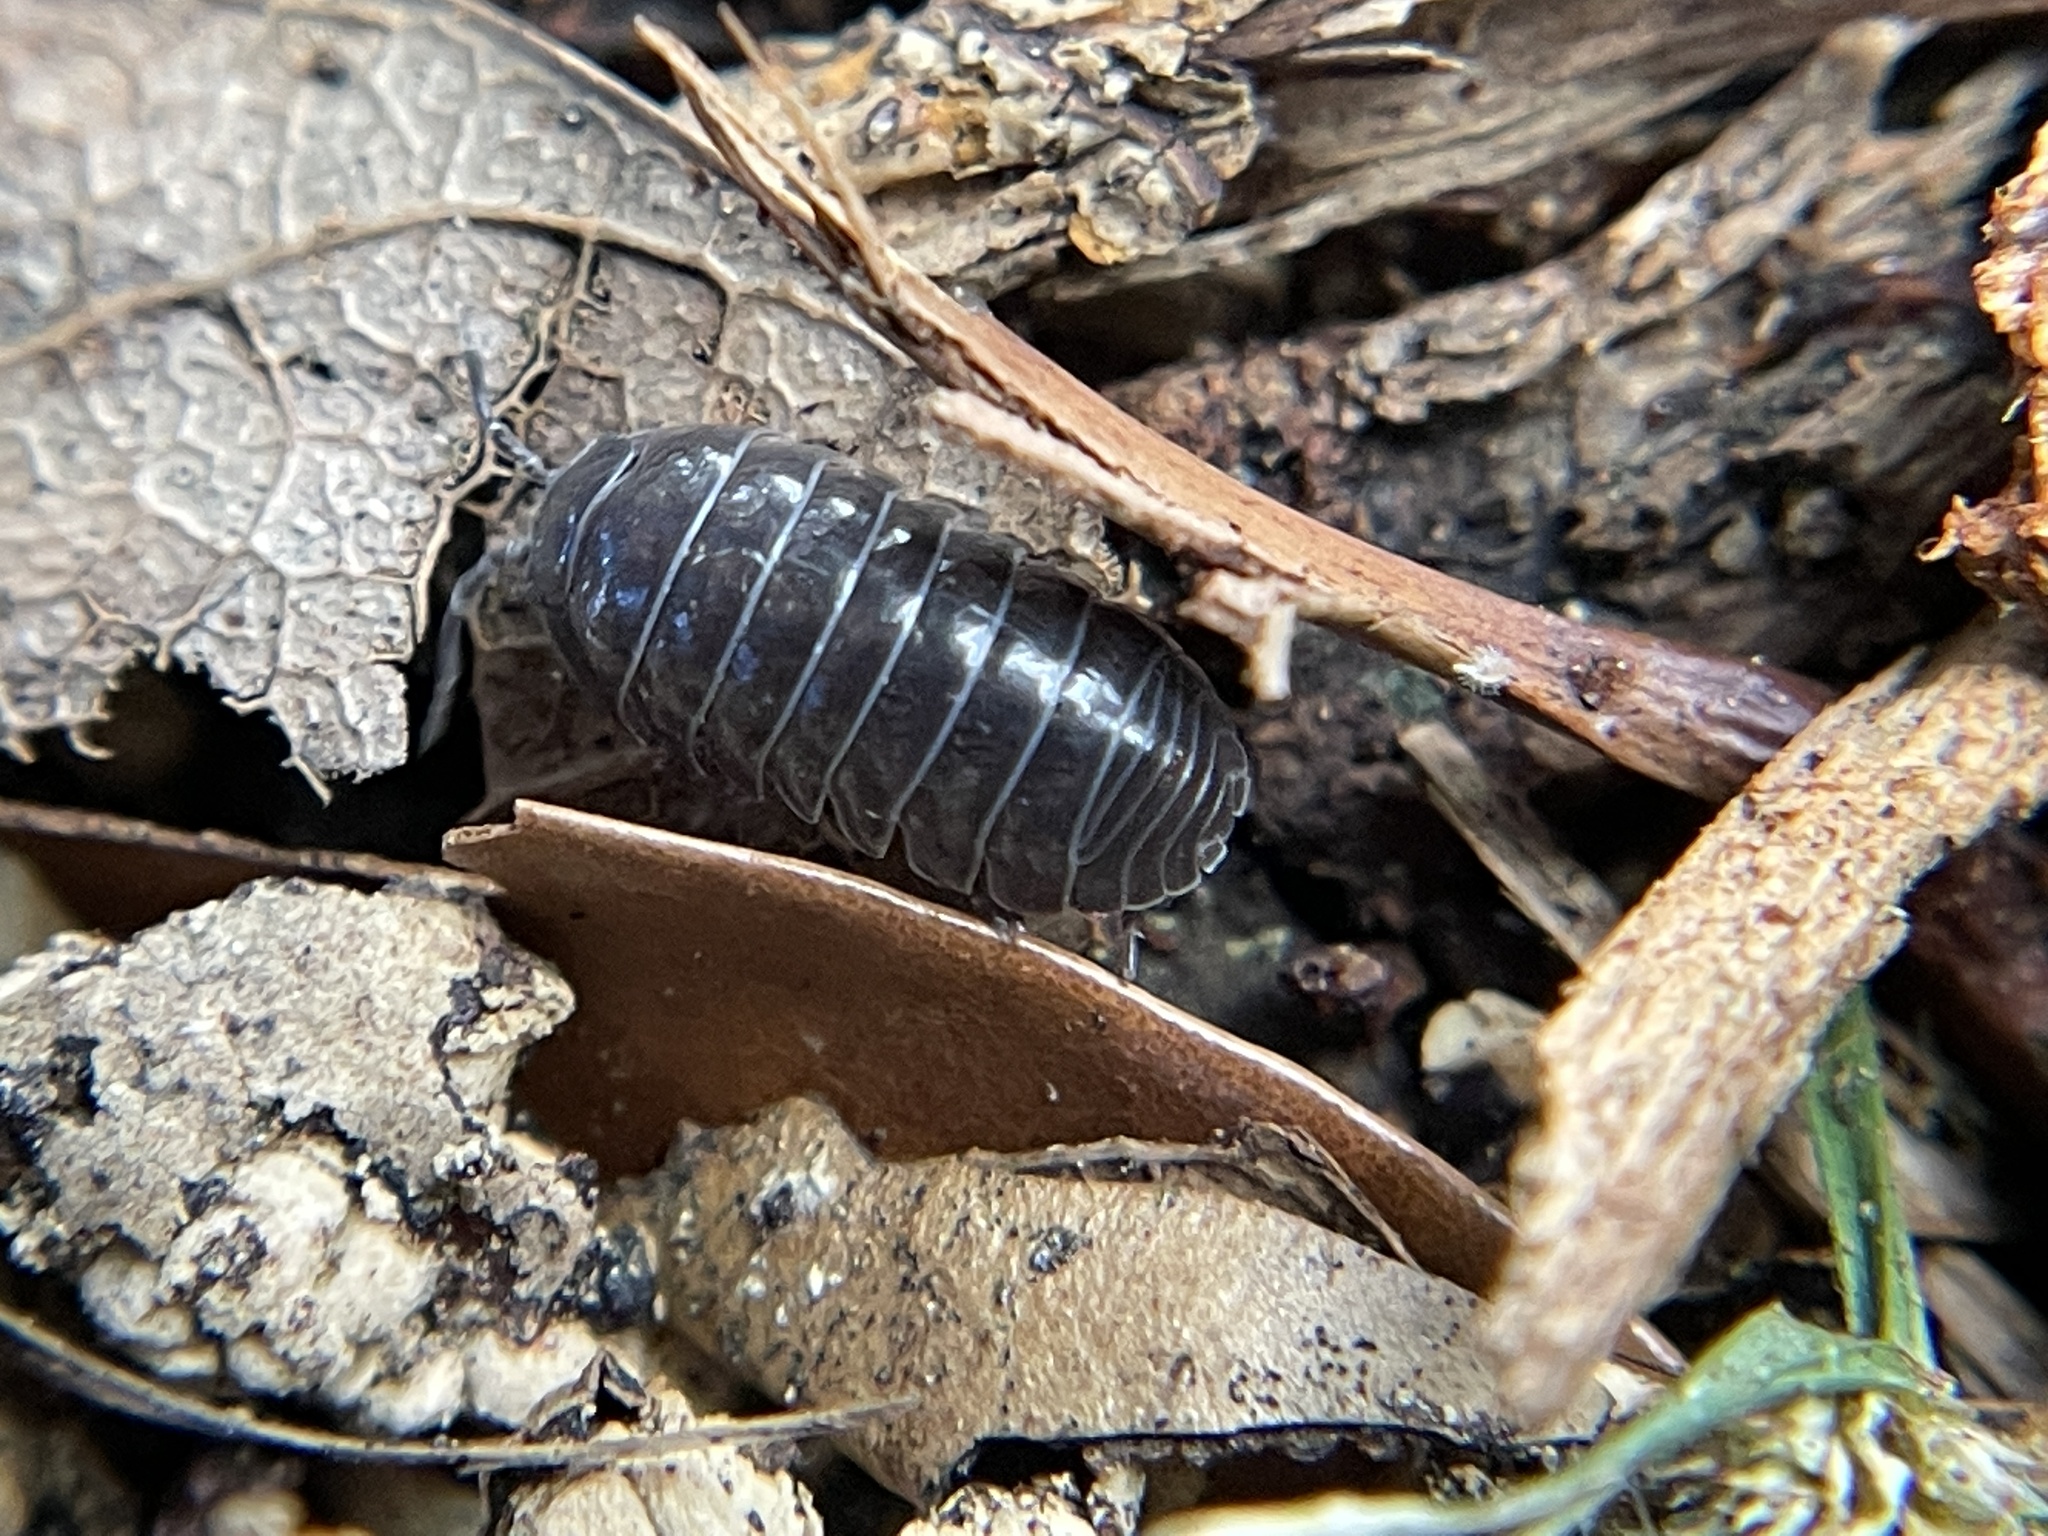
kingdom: Animalia
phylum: Arthropoda
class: Malacostraca
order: Isopoda
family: Armadillidiidae
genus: Armadillidium
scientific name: Armadillidium vulgare
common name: Common pill woodlouse
